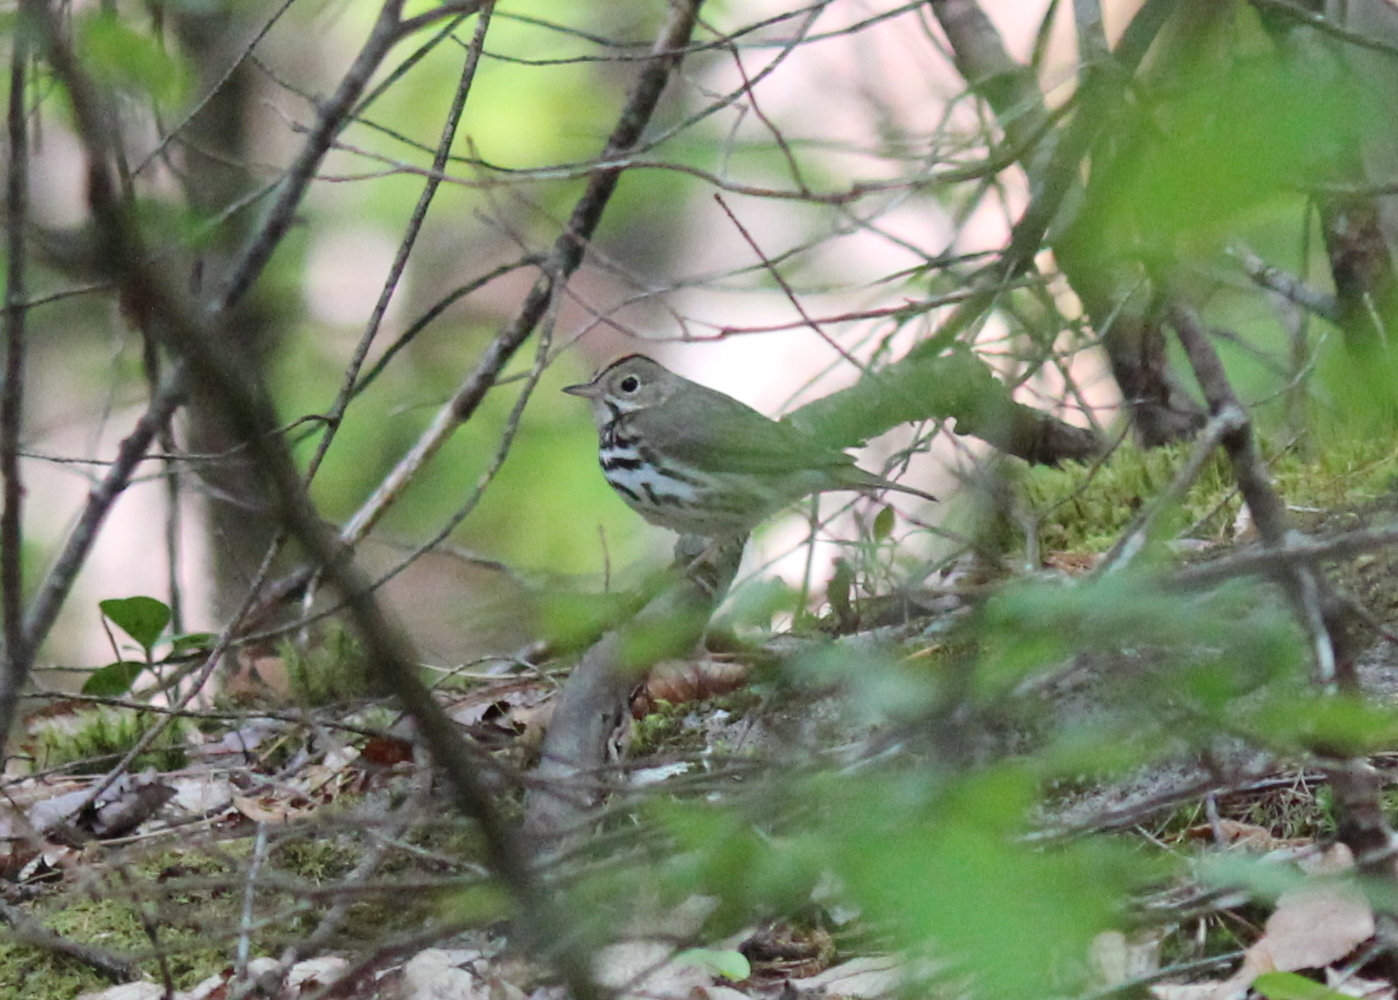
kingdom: Animalia
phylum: Chordata
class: Aves
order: Passeriformes
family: Parulidae
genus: Seiurus
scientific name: Seiurus aurocapilla
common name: Ovenbird
